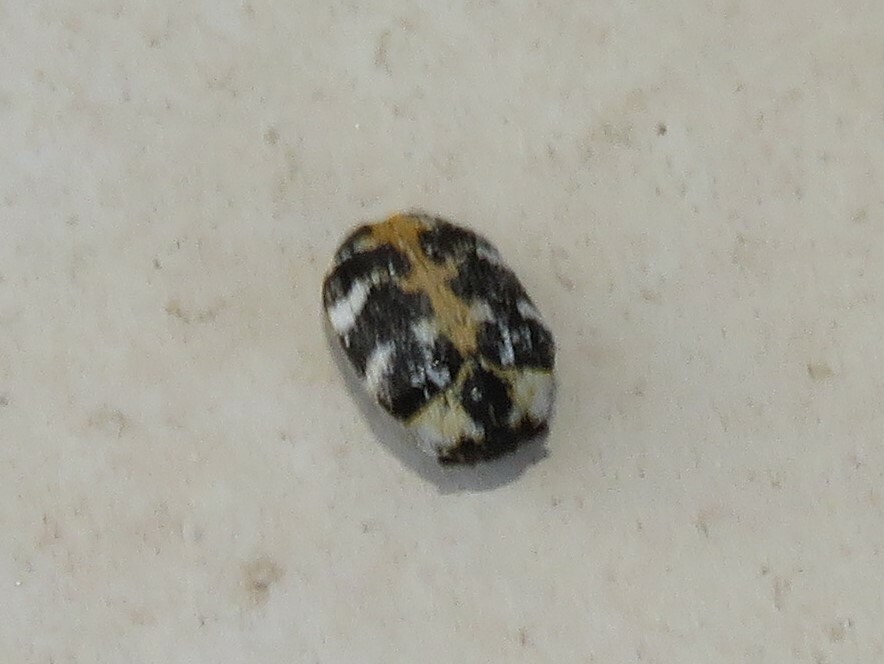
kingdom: Animalia
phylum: Arthropoda
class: Insecta
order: Coleoptera
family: Dermestidae
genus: Anthrenus
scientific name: Anthrenus scrophulariae
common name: Buffalo carpet beetle
